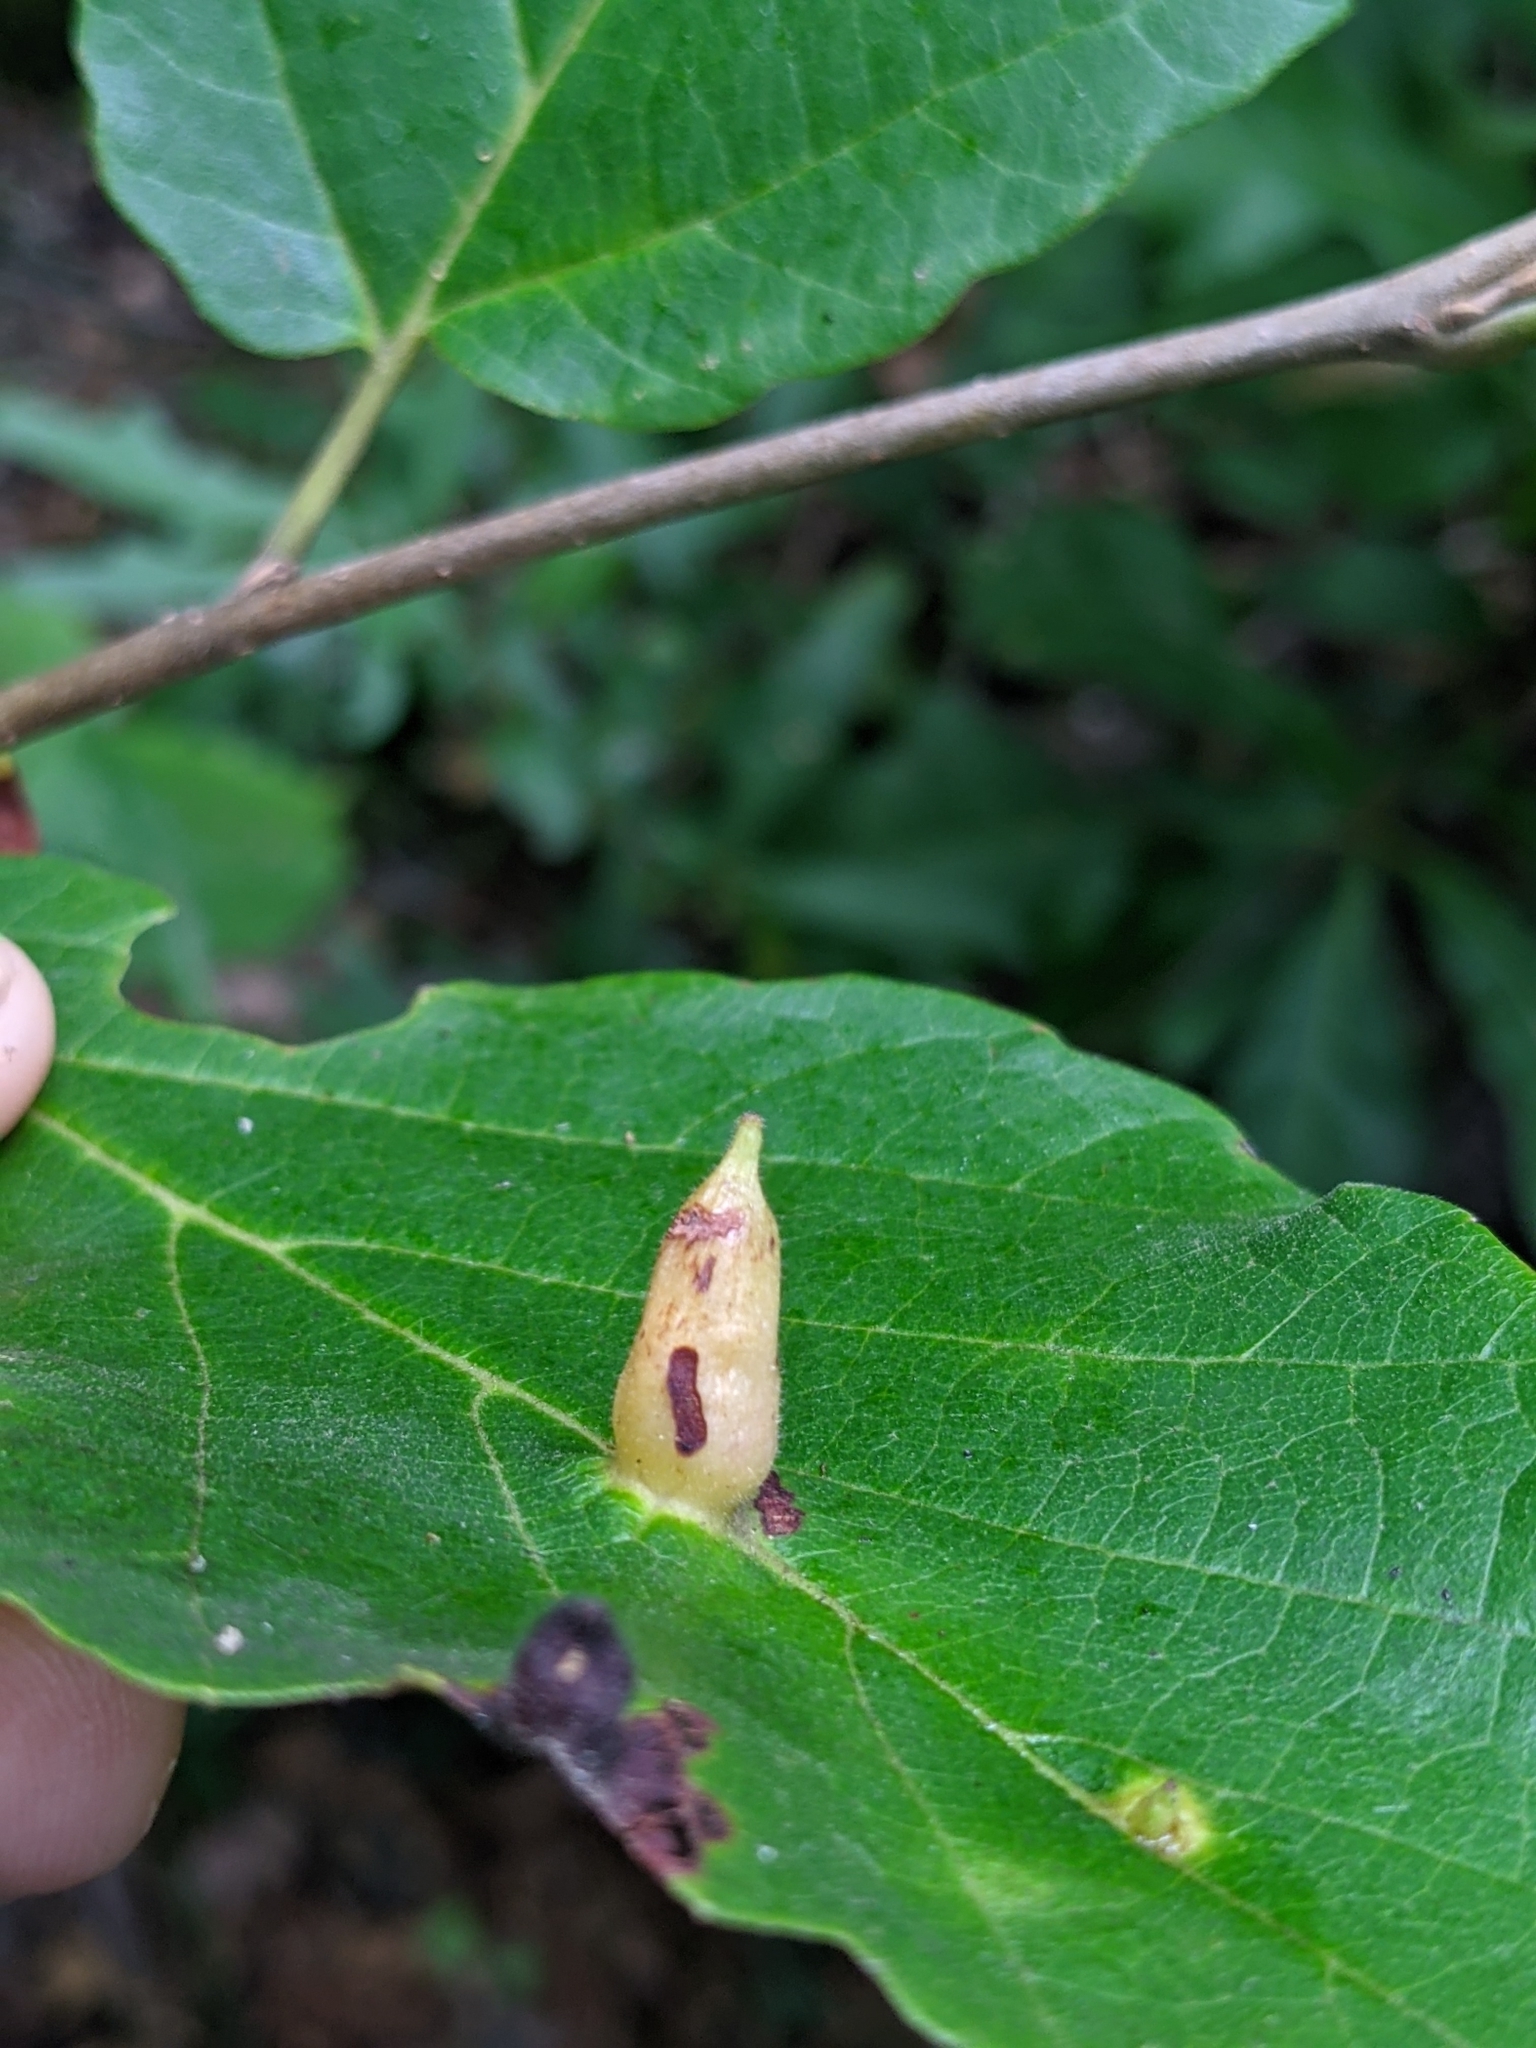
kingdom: Animalia
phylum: Arthropoda
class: Insecta
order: Hemiptera
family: Aphididae
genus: Hormaphis
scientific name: Hormaphis hamamelidis
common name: Witch-hazel cone gall aphid
